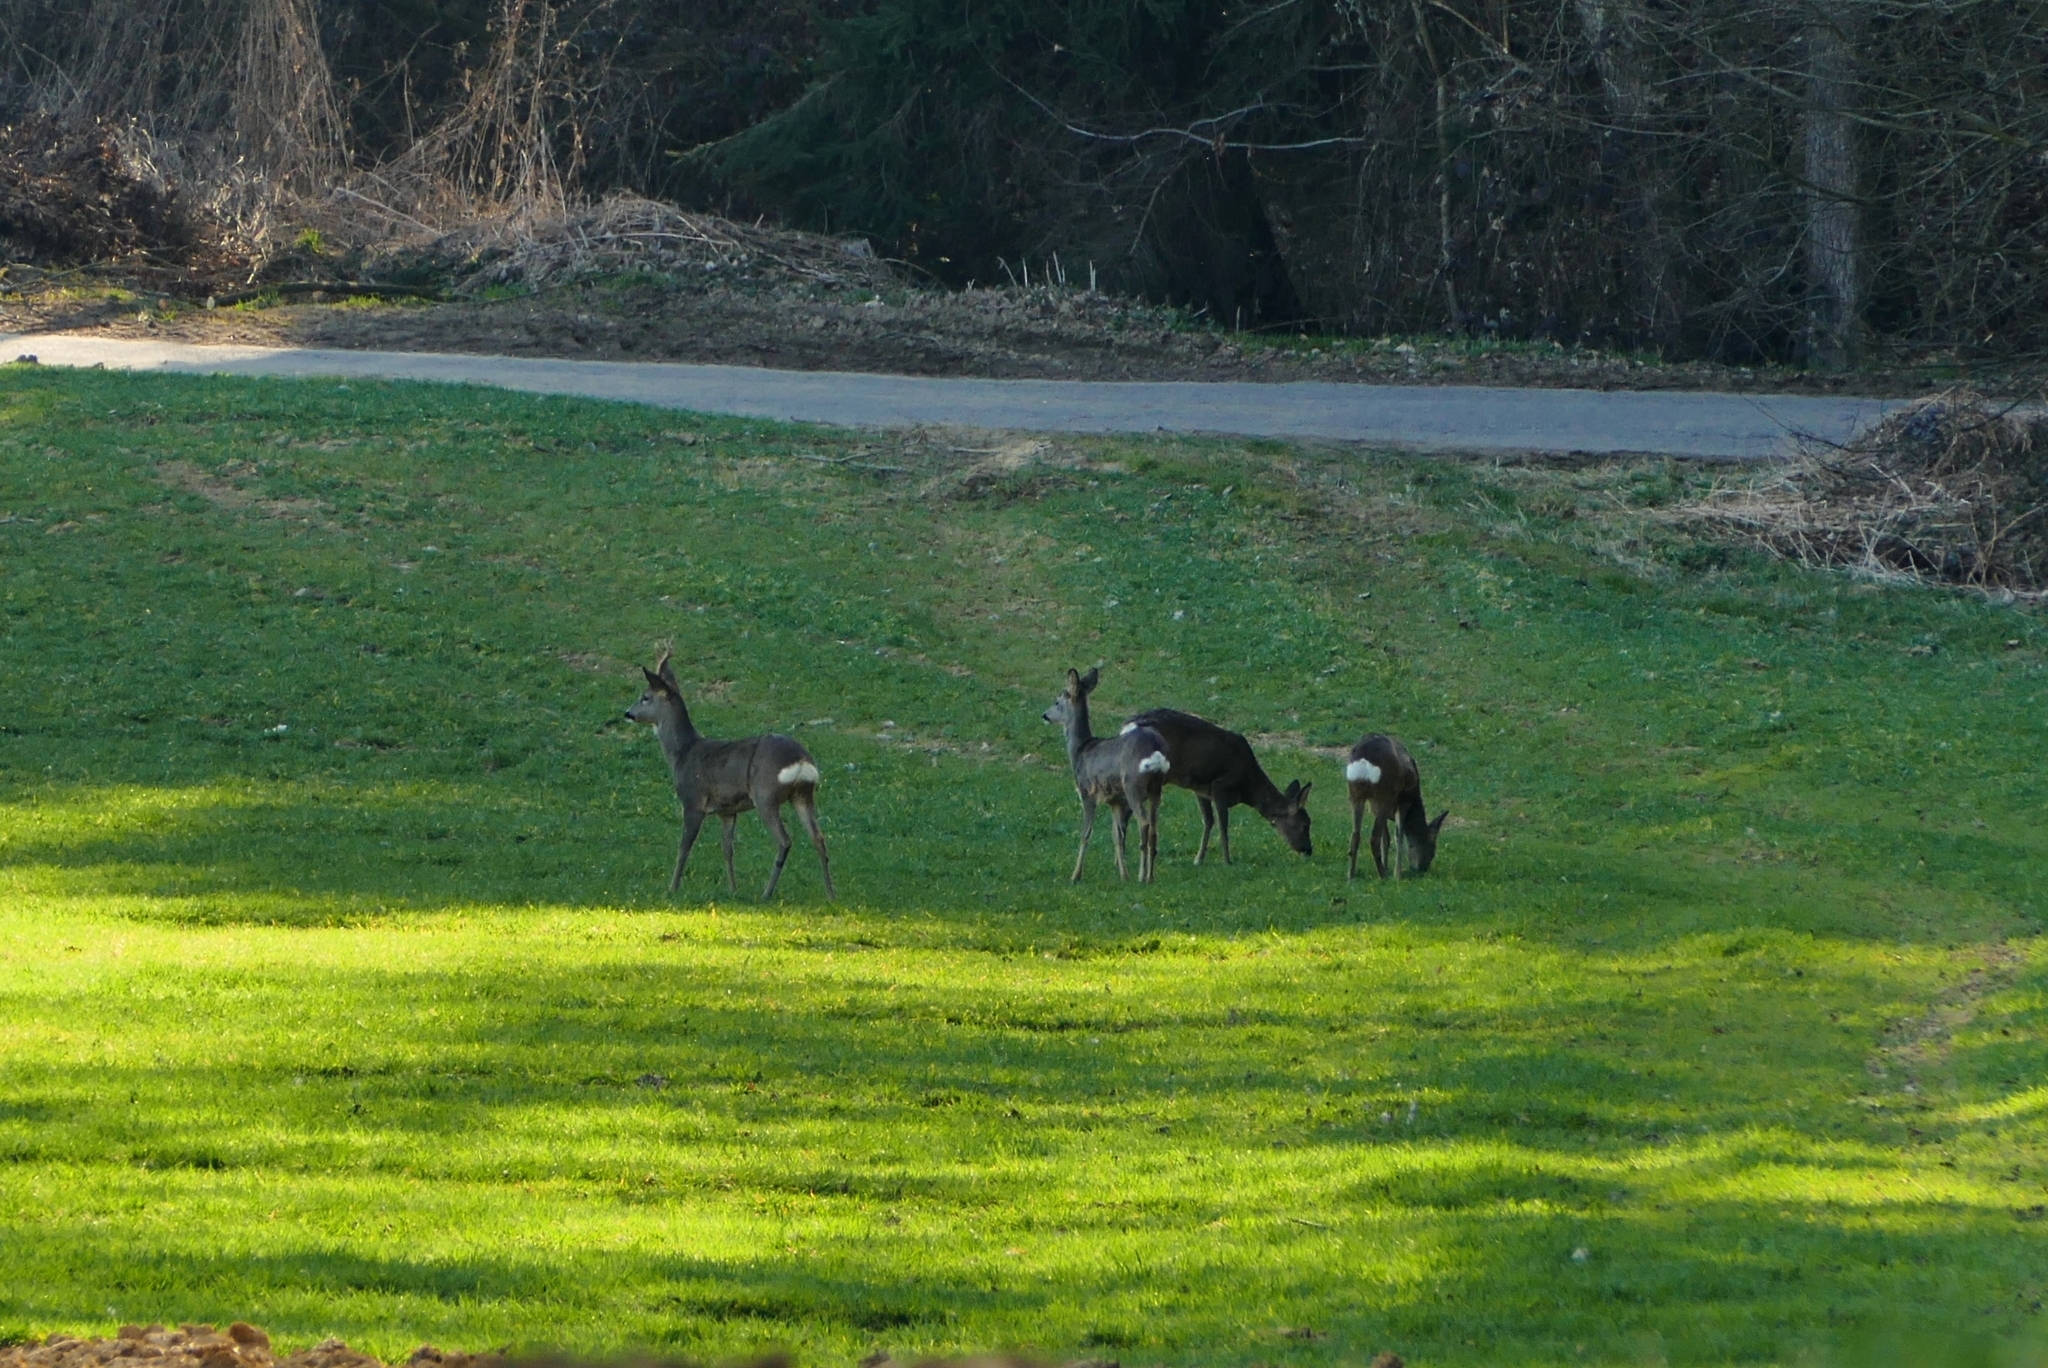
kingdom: Animalia
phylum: Chordata
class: Mammalia
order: Artiodactyla
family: Cervidae
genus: Capreolus
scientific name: Capreolus capreolus
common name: Western roe deer
